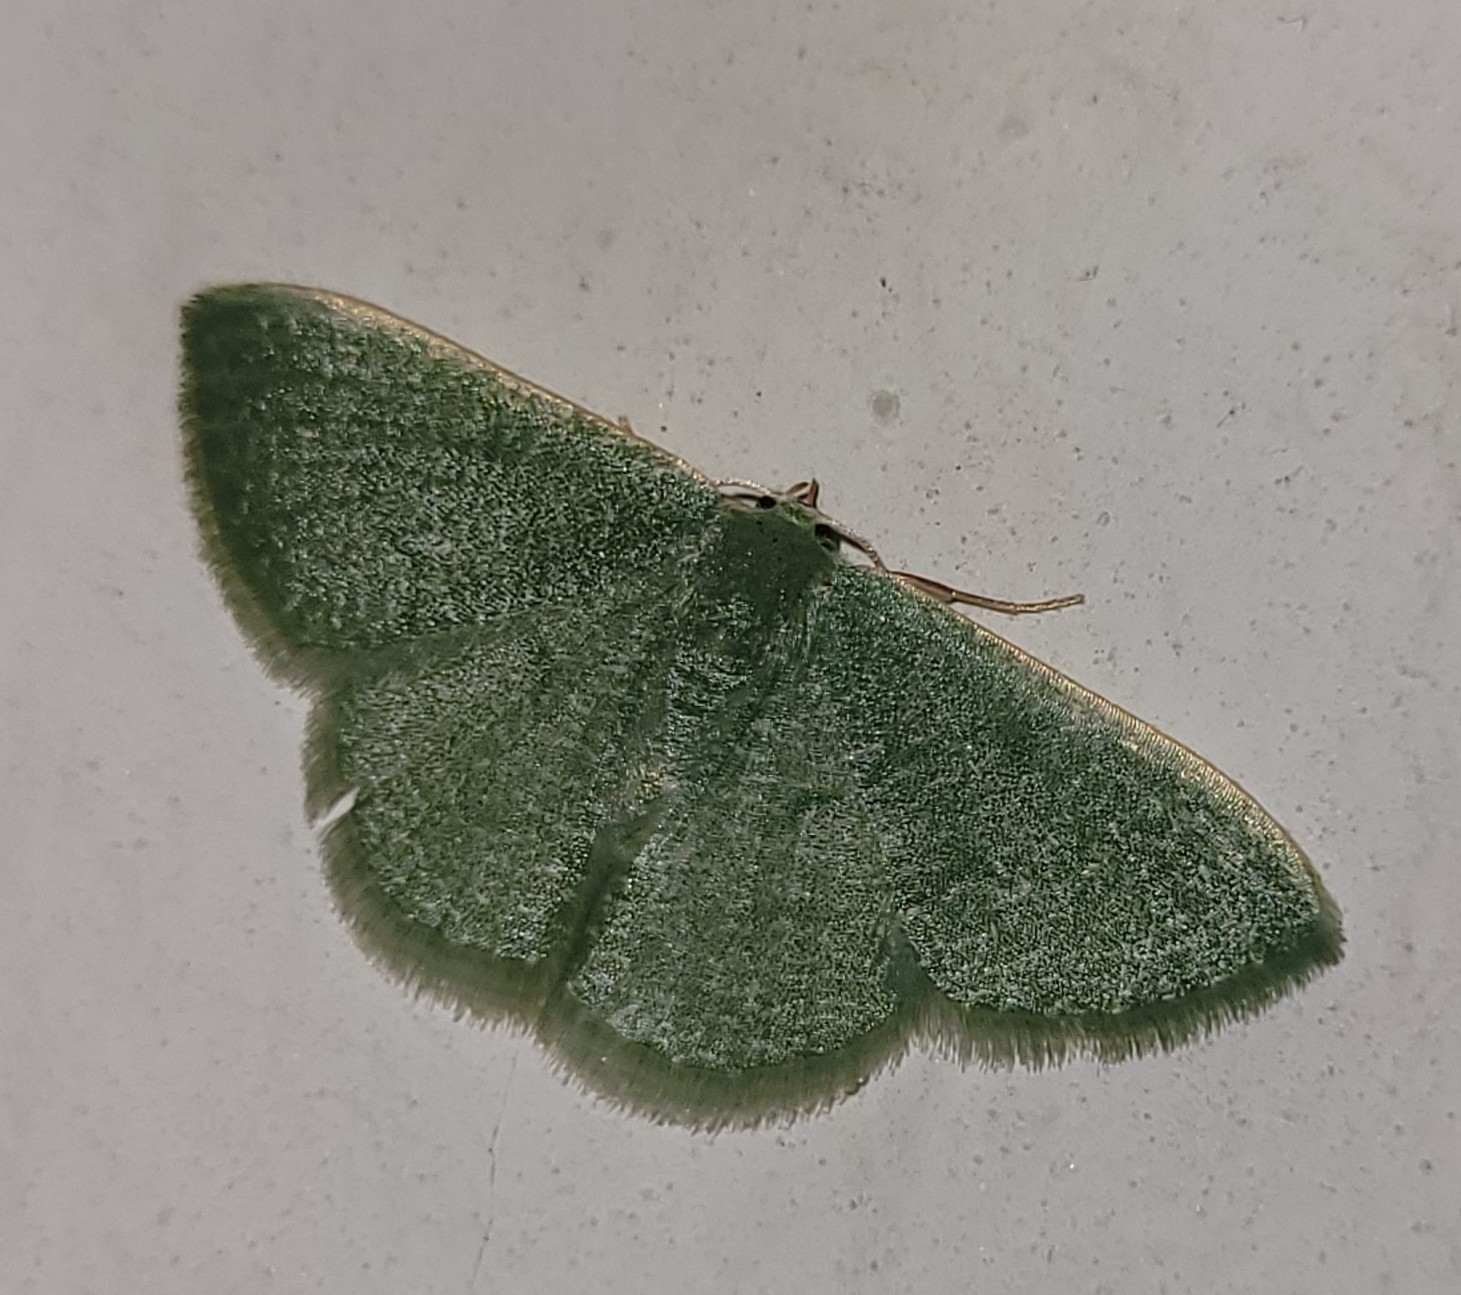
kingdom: Animalia
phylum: Arthropoda
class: Insecta
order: Lepidoptera
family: Geometridae
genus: Phaiogramma
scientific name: Phaiogramma faustinata
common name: Millière's emerald
